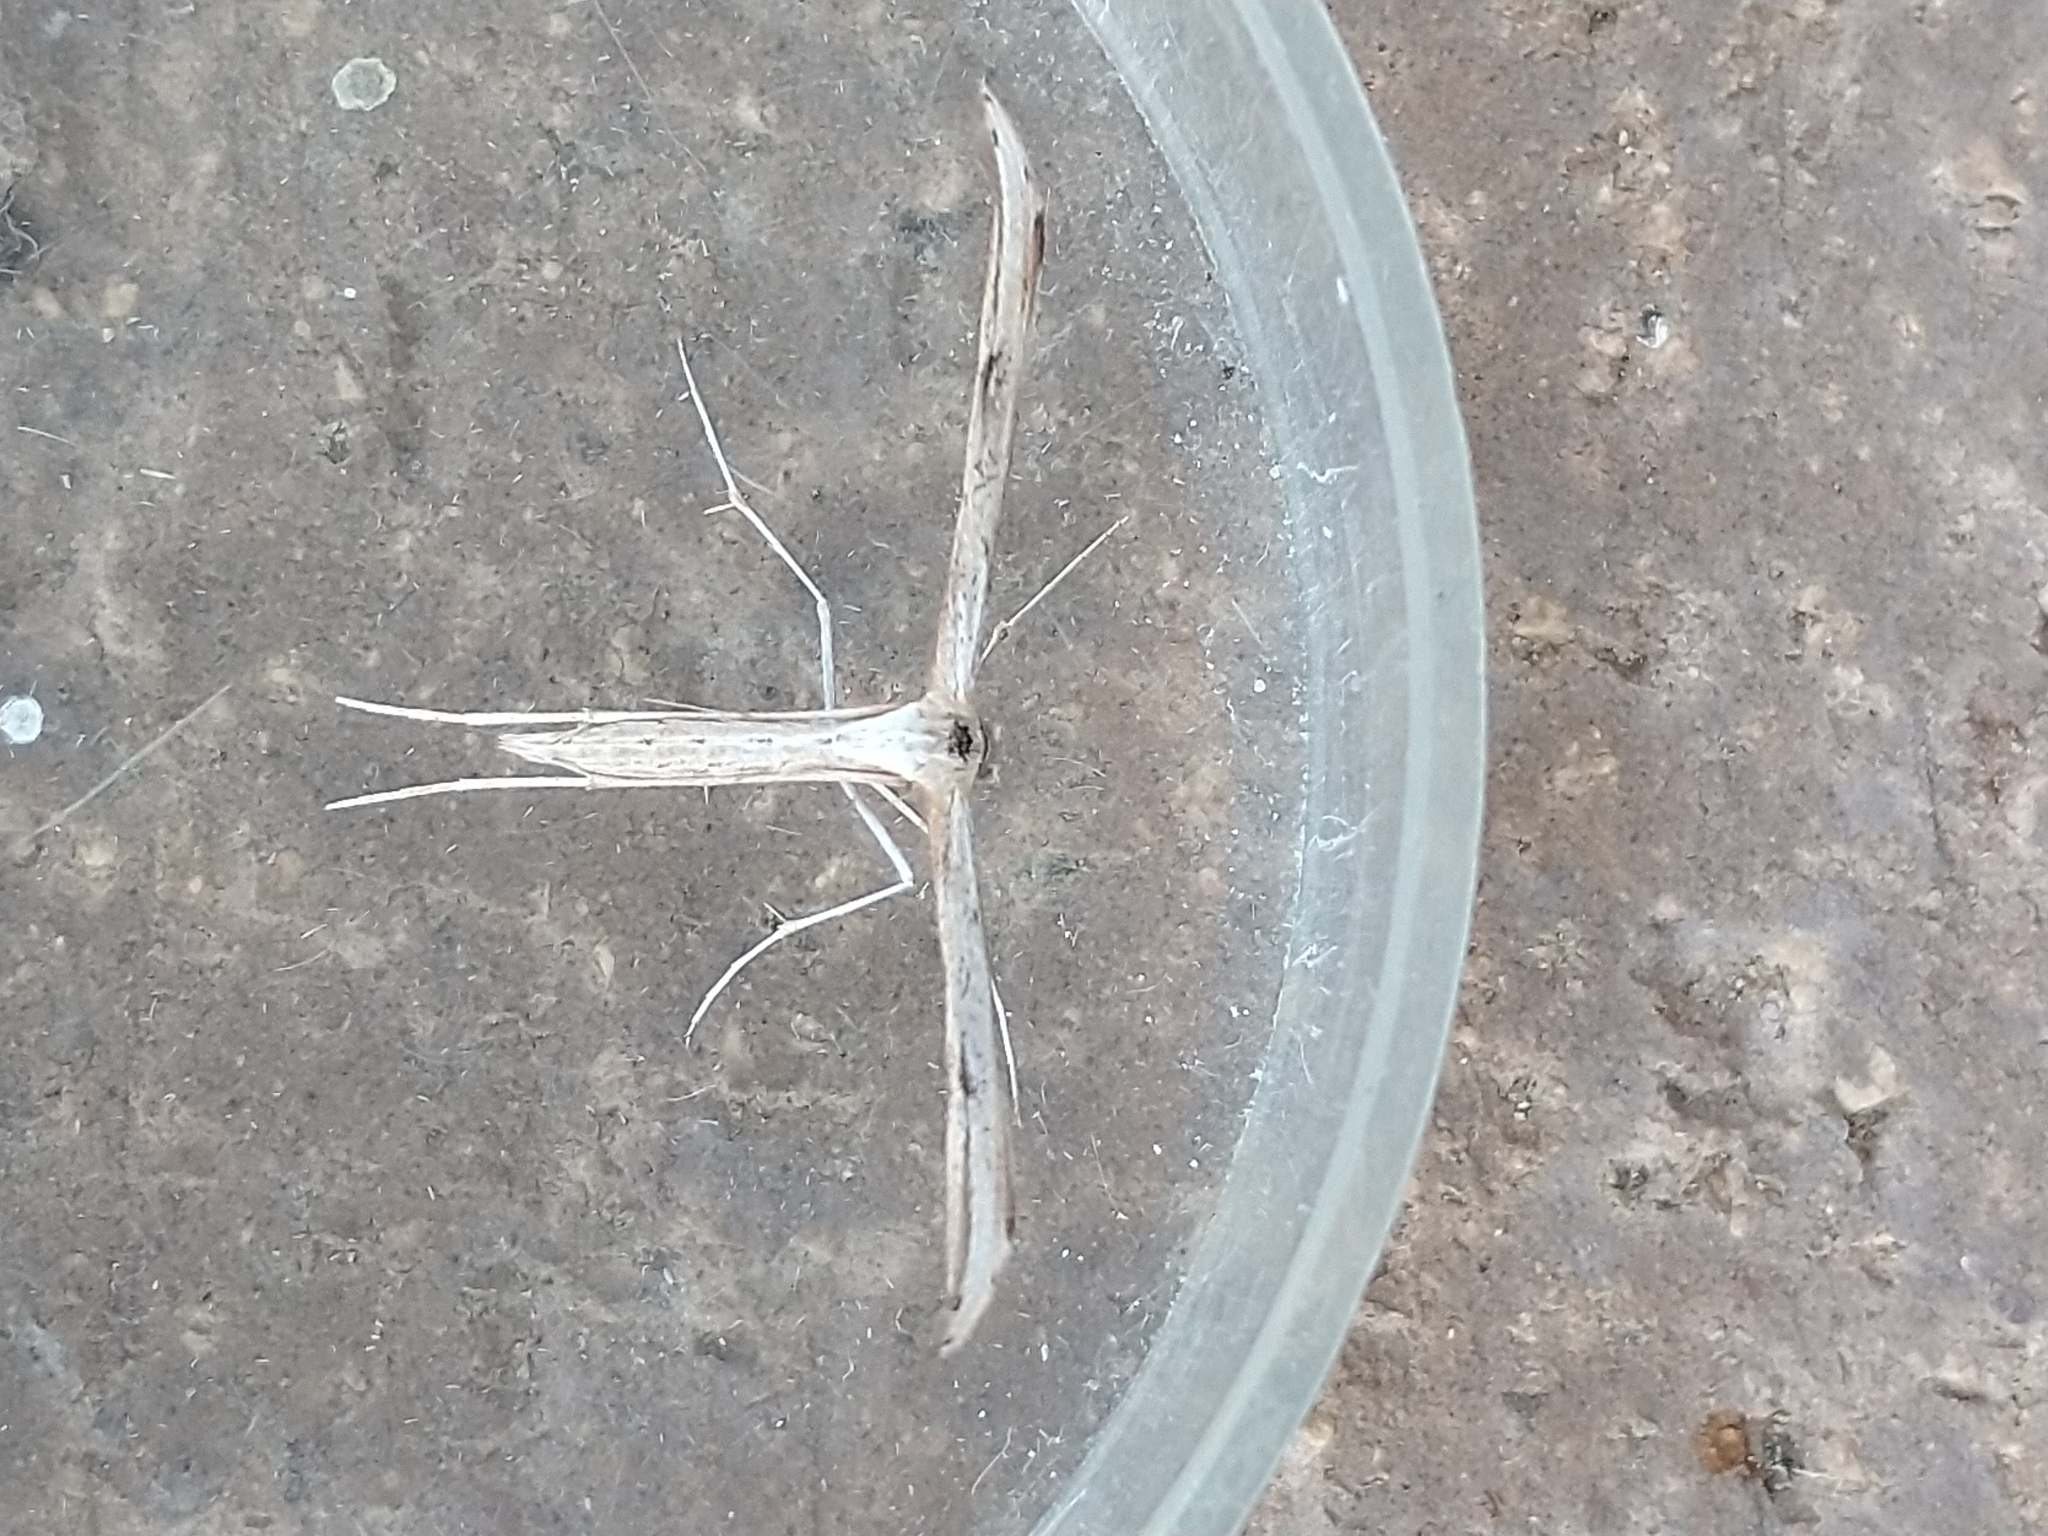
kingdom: Animalia
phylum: Arthropoda
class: Insecta
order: Lepidoptera
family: Pterophoridae
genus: Emmelina
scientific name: Emmelina monodactyla
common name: Common plume
